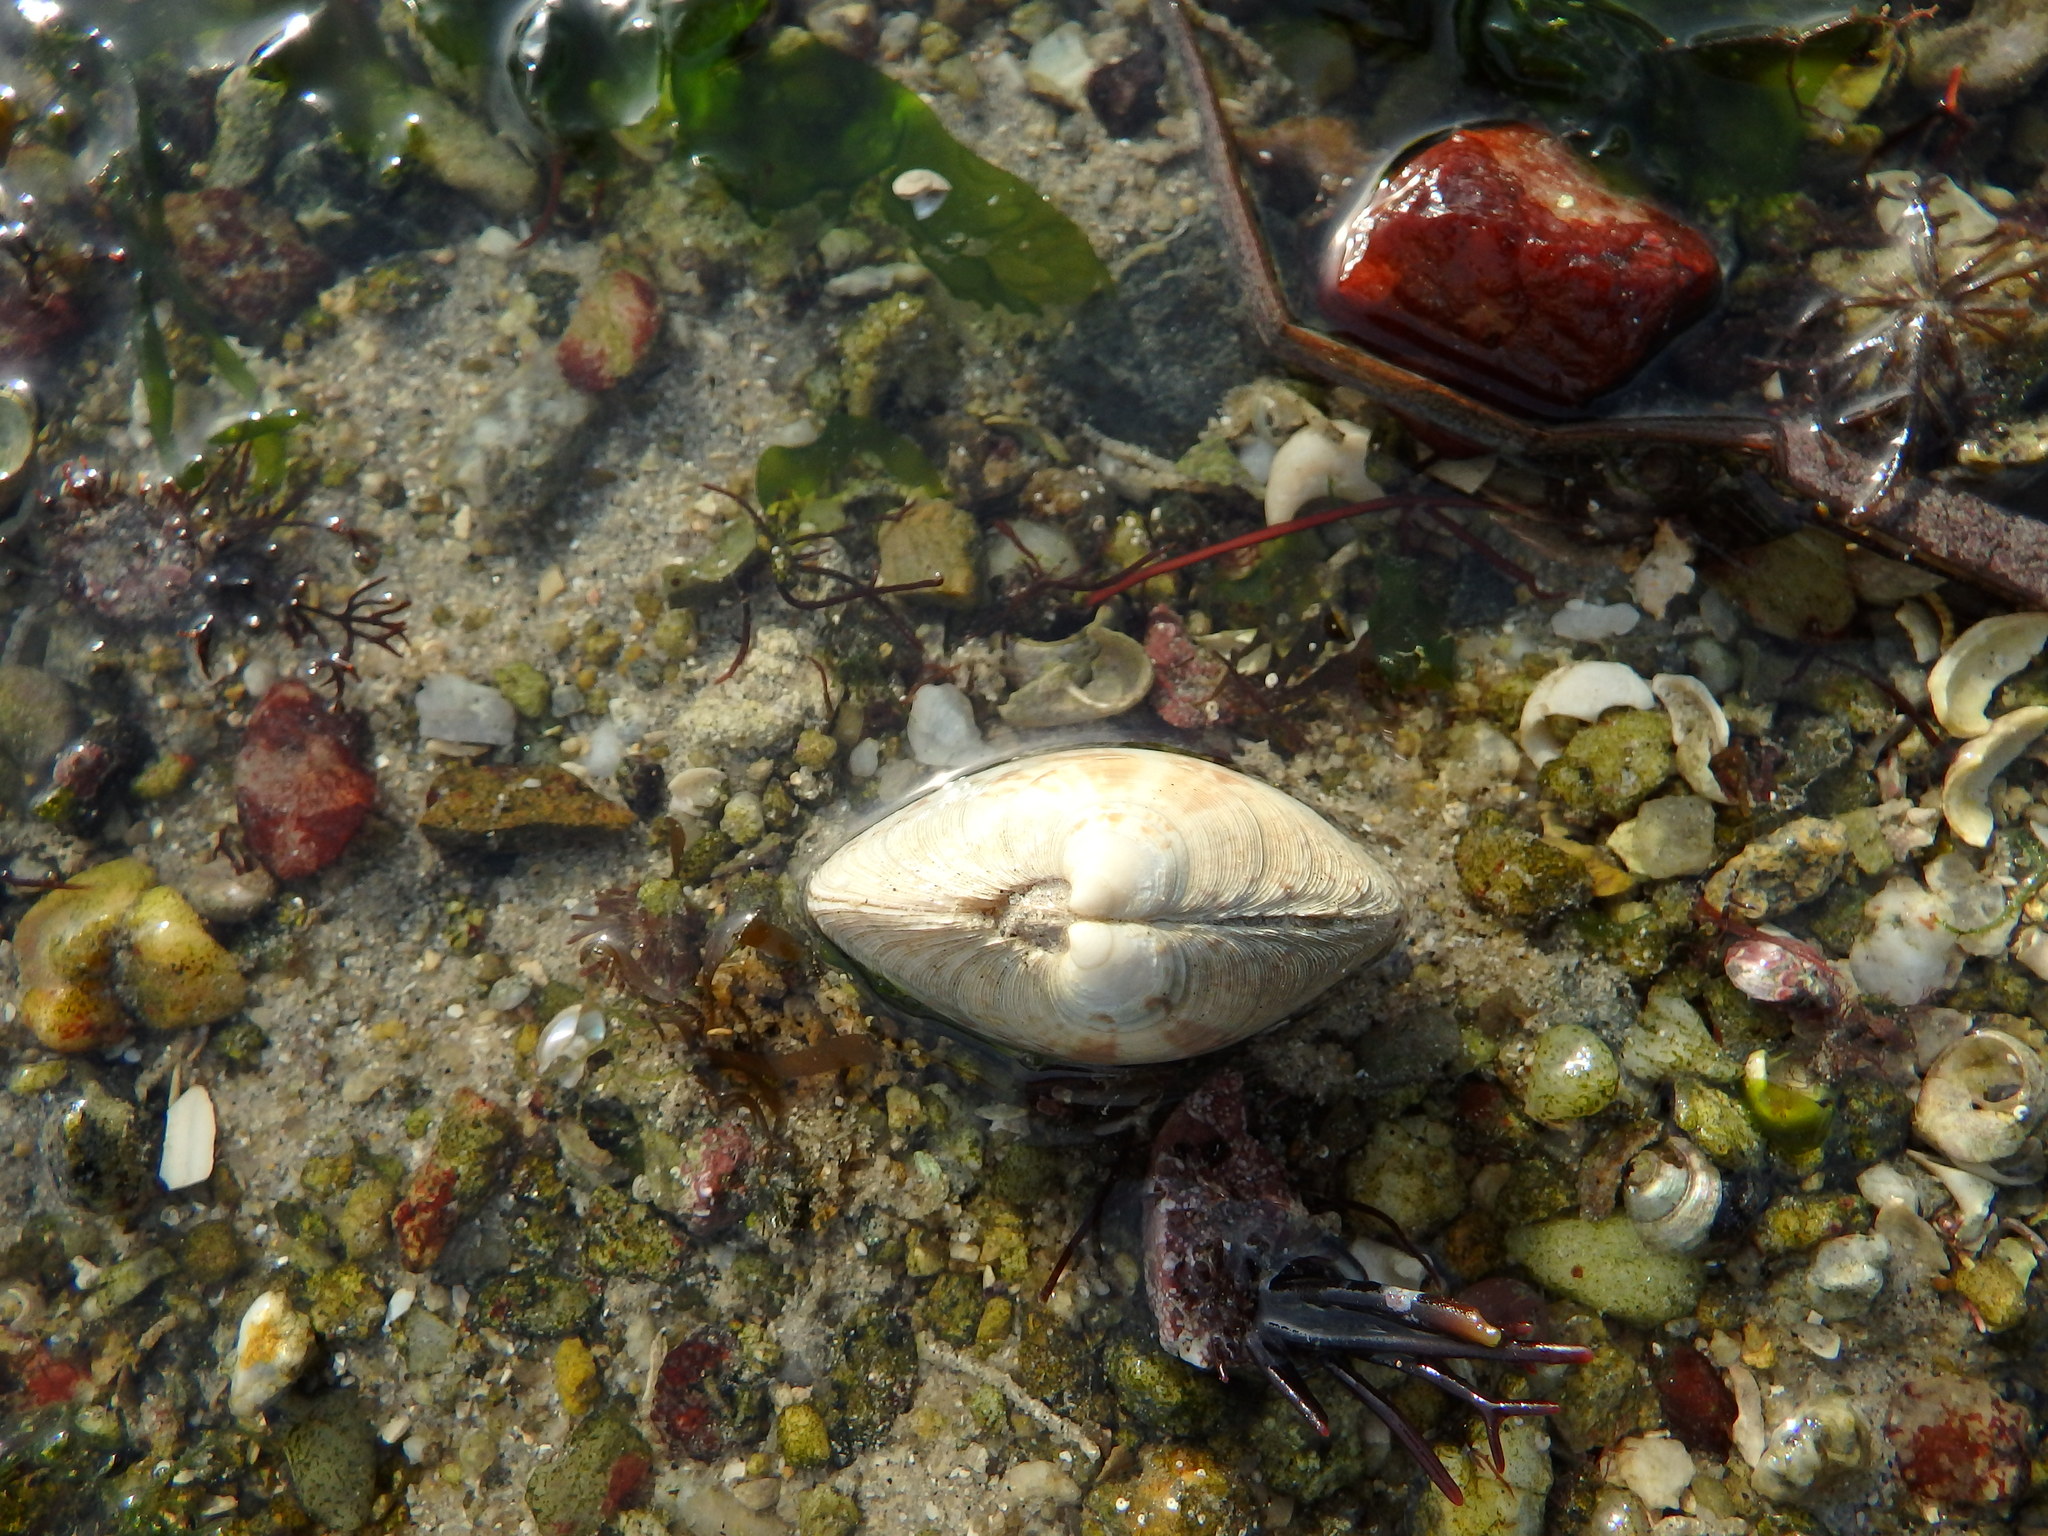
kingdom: Animalia
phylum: Mollusca
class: Bivalvia
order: Venerida
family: Veneridae
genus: Dosinia
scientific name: Dosinia exoleta
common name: Rayed artemis
